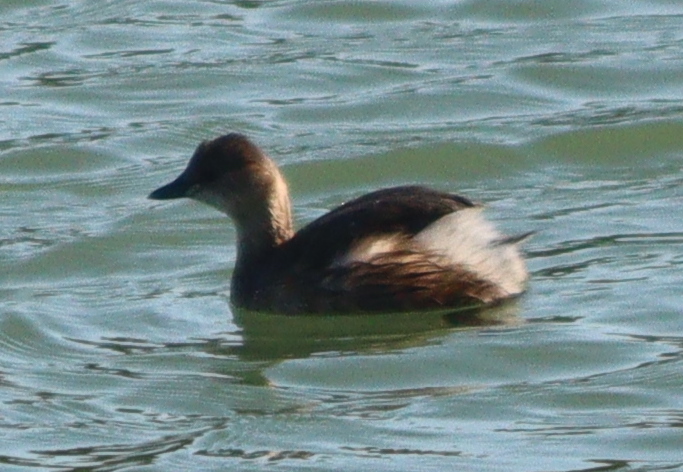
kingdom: Animalia
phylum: Chordata
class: Aves
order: Podicipediformes
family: Podicipedidae
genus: Tachybaptus
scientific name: Tachybaptus ruficollis
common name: Little grebe
